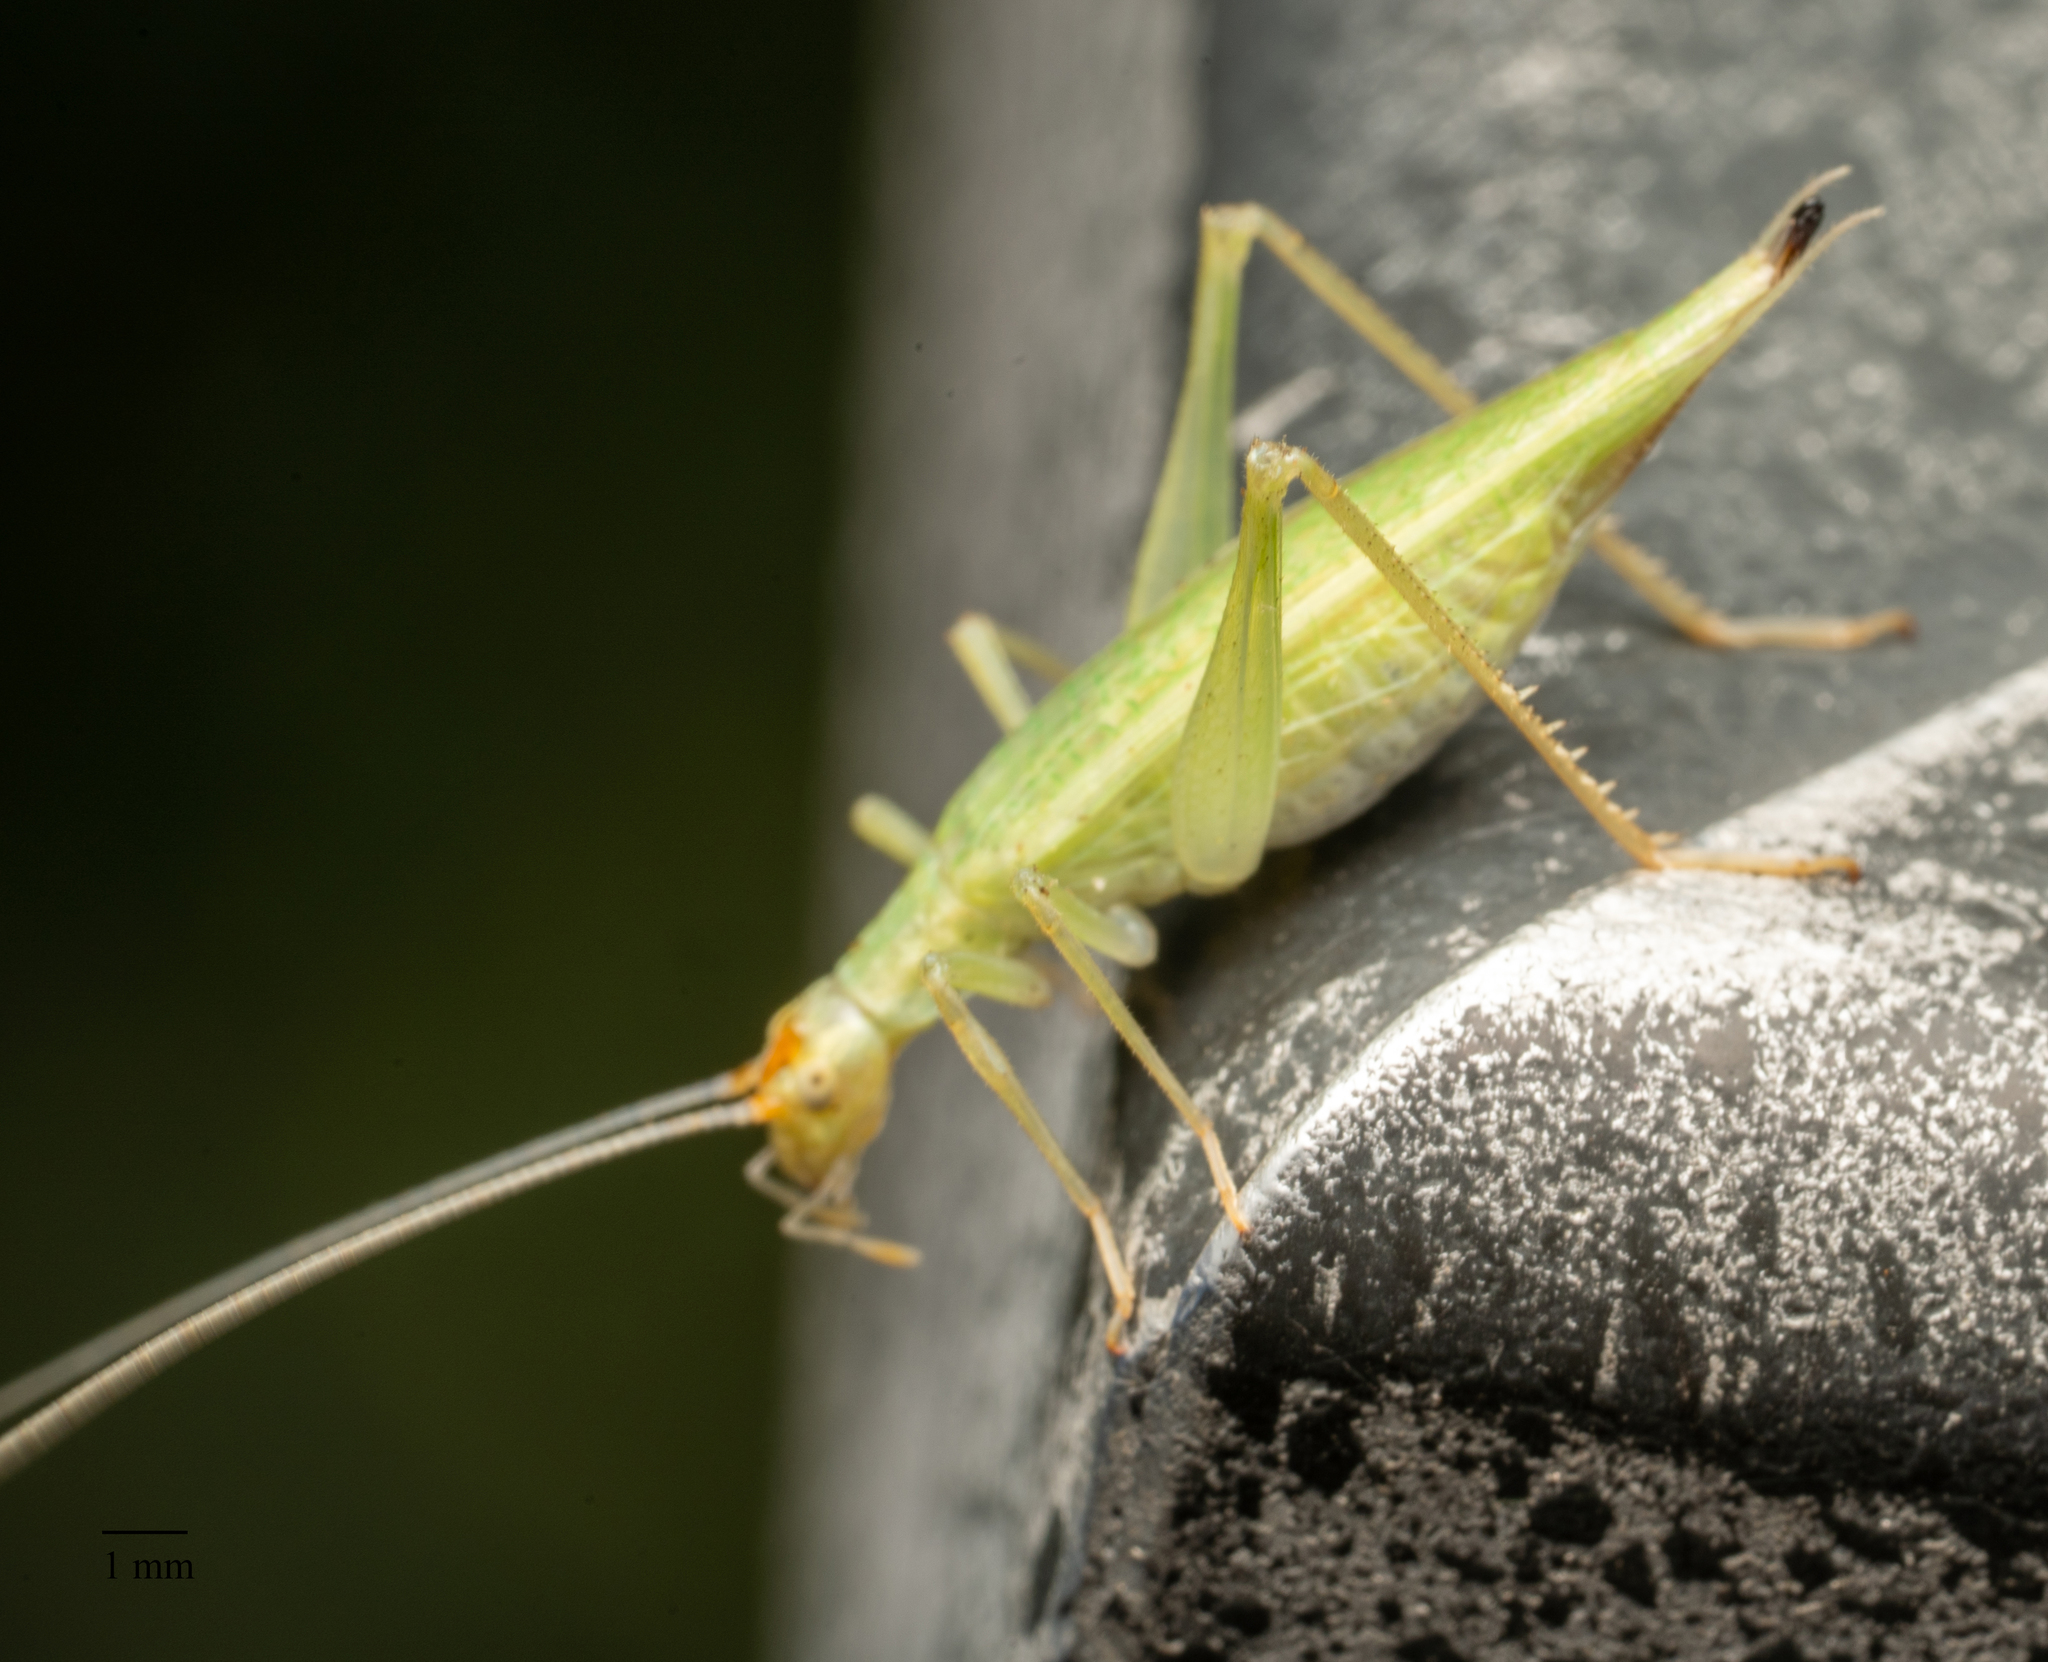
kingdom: Animalia
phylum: Arthropoda
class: Insecta
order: Orthoptera
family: Gryllidae
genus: Oecanthus
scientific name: Oecanthus
